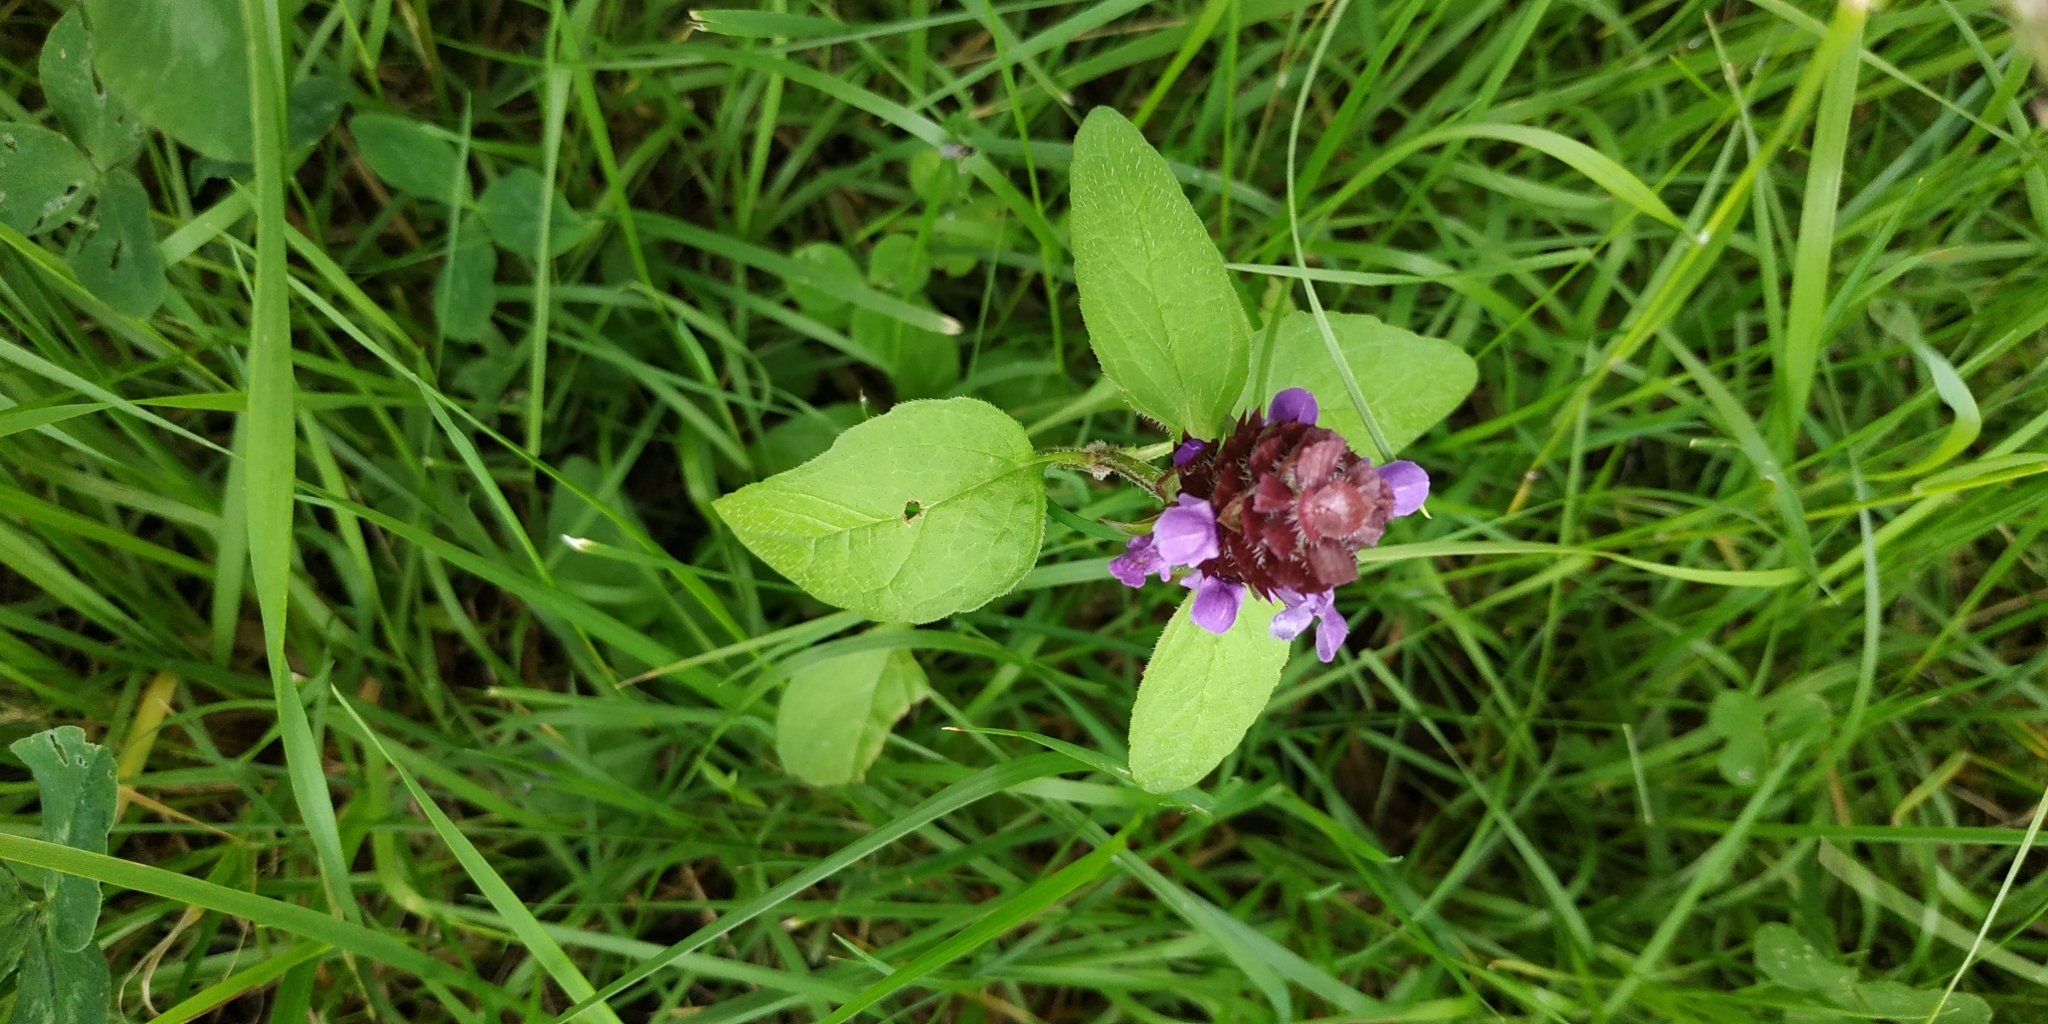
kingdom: Plantae
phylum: Tracheophyta
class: Magnoliopsida
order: Lamiales
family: Lamiaceae
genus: Prunella
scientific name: Prunella vulgaris
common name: Heal-all
